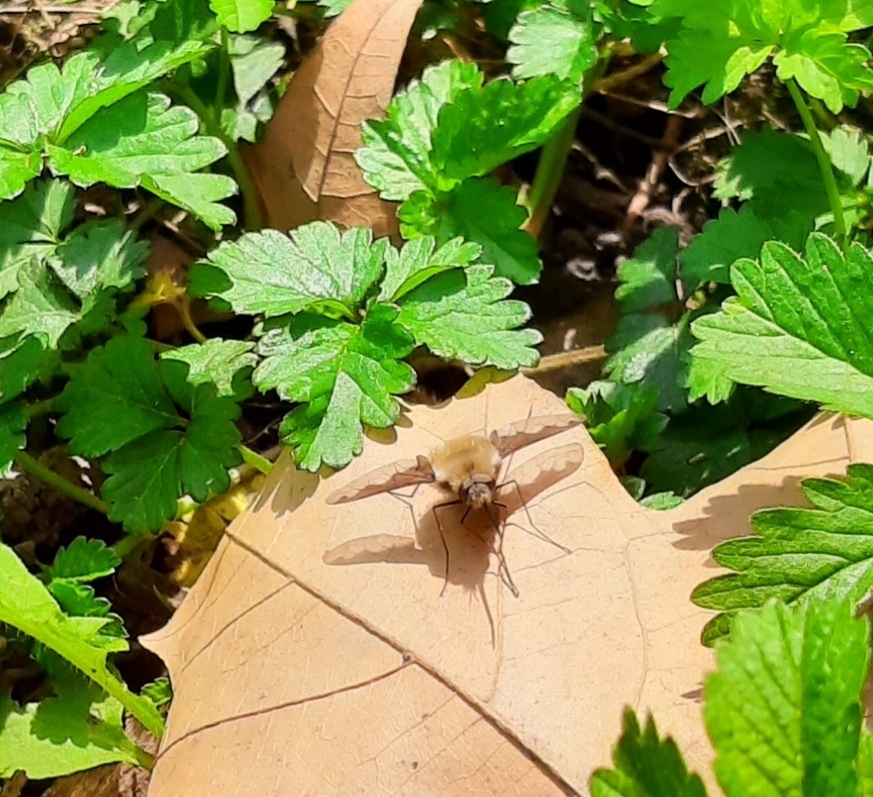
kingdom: Animalia
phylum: Arthropoda
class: Insecta
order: Diptera
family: Bombyliidae
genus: Bombylius
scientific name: Bombylius major
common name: Bee fly
